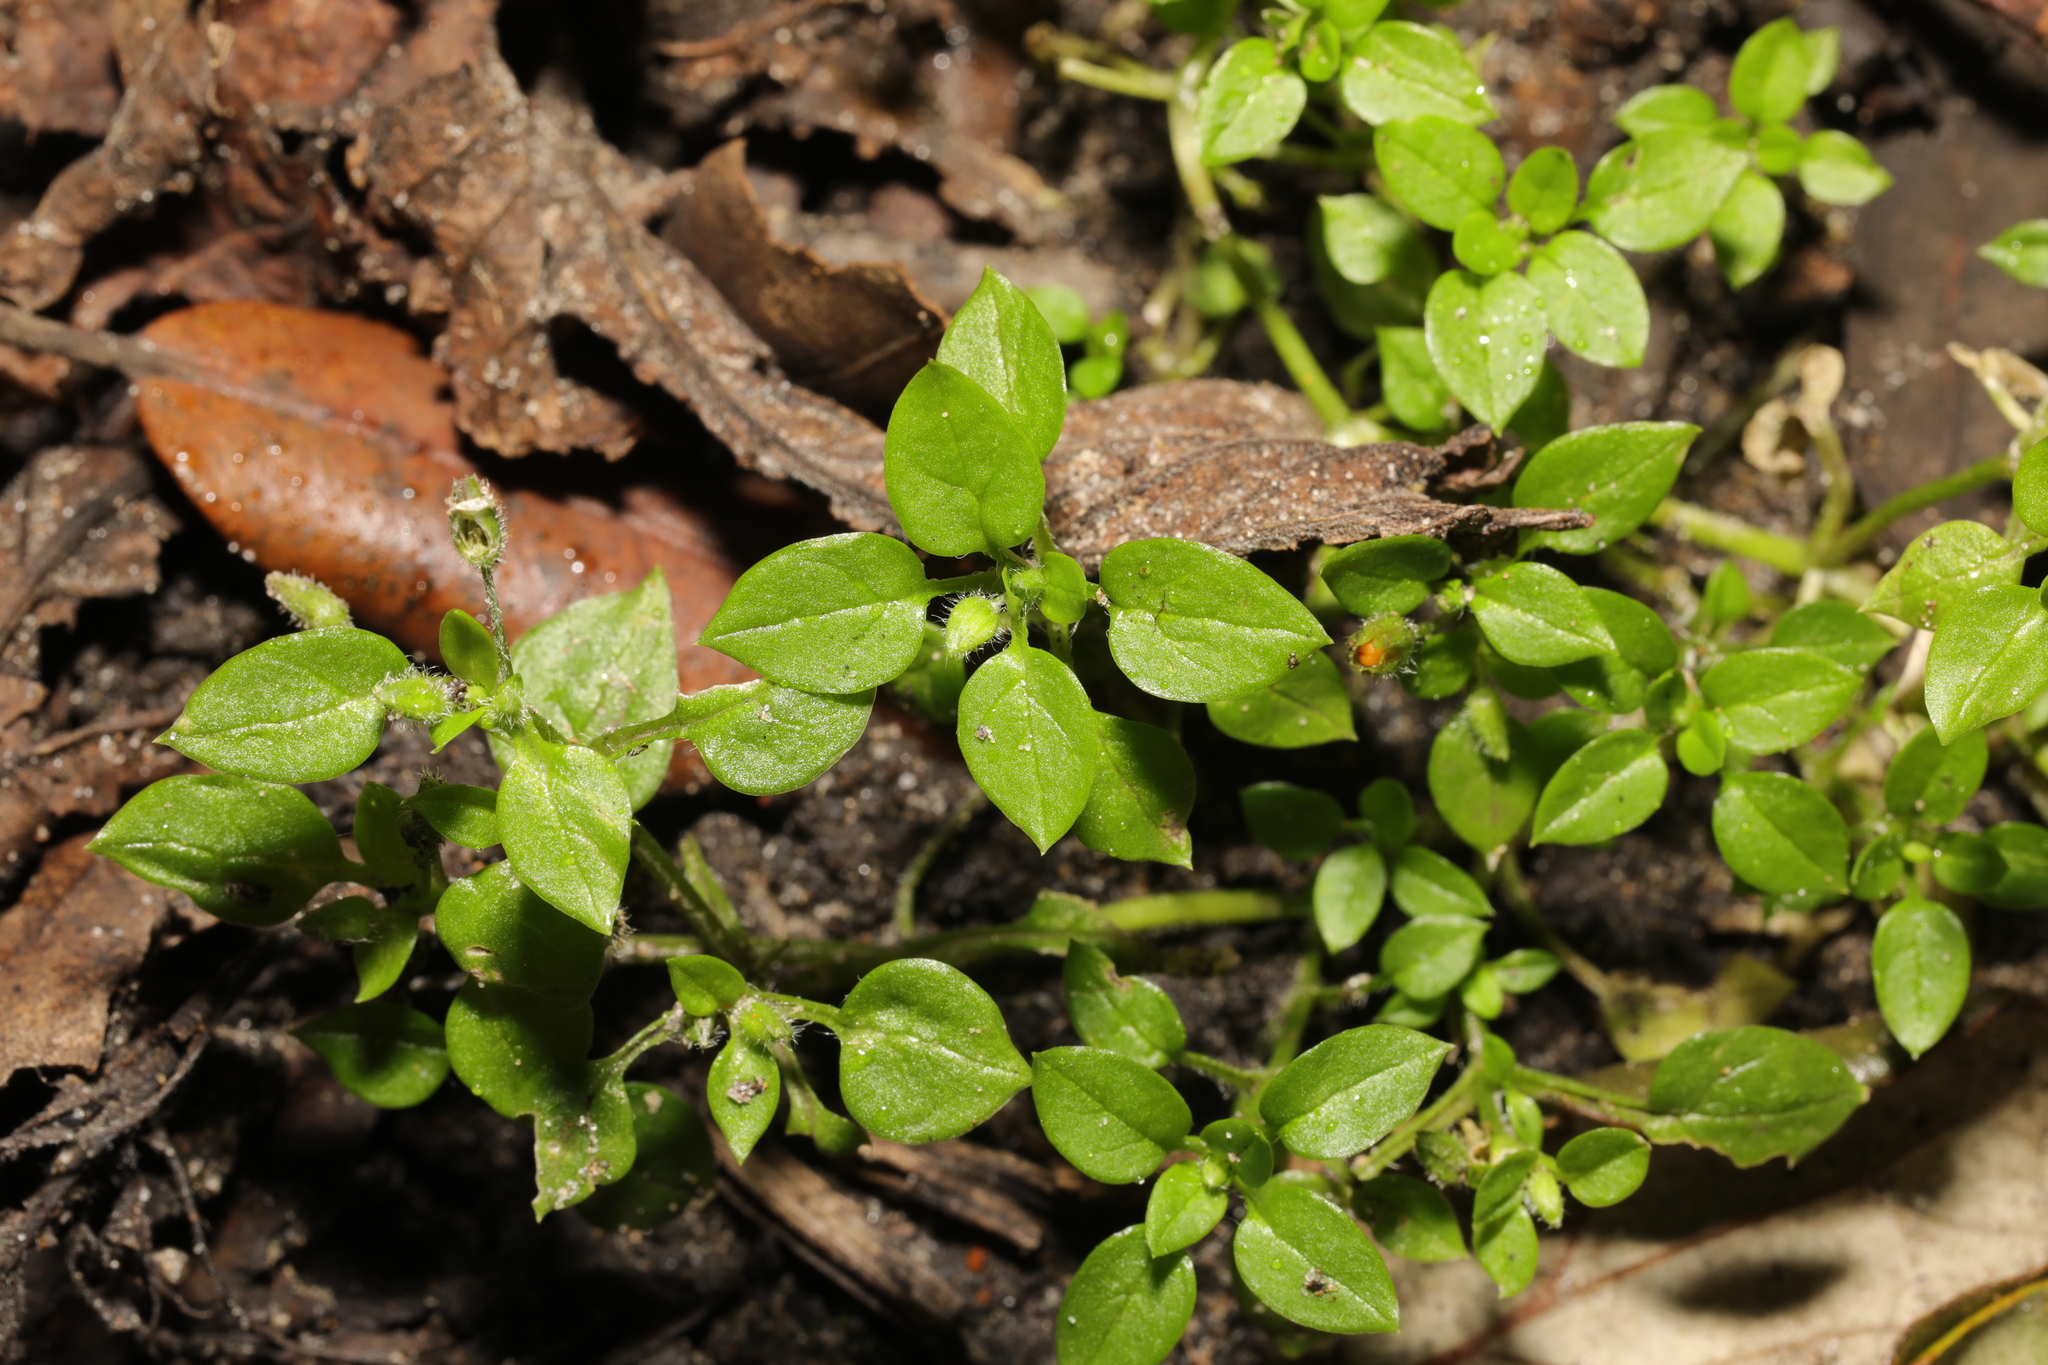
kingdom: Plantae
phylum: Tracheophyta
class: Magnoliopsida
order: Caryophyllales
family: Caryophyllaceae
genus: Stellaria
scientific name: Stellaria media
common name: Common chickweed
